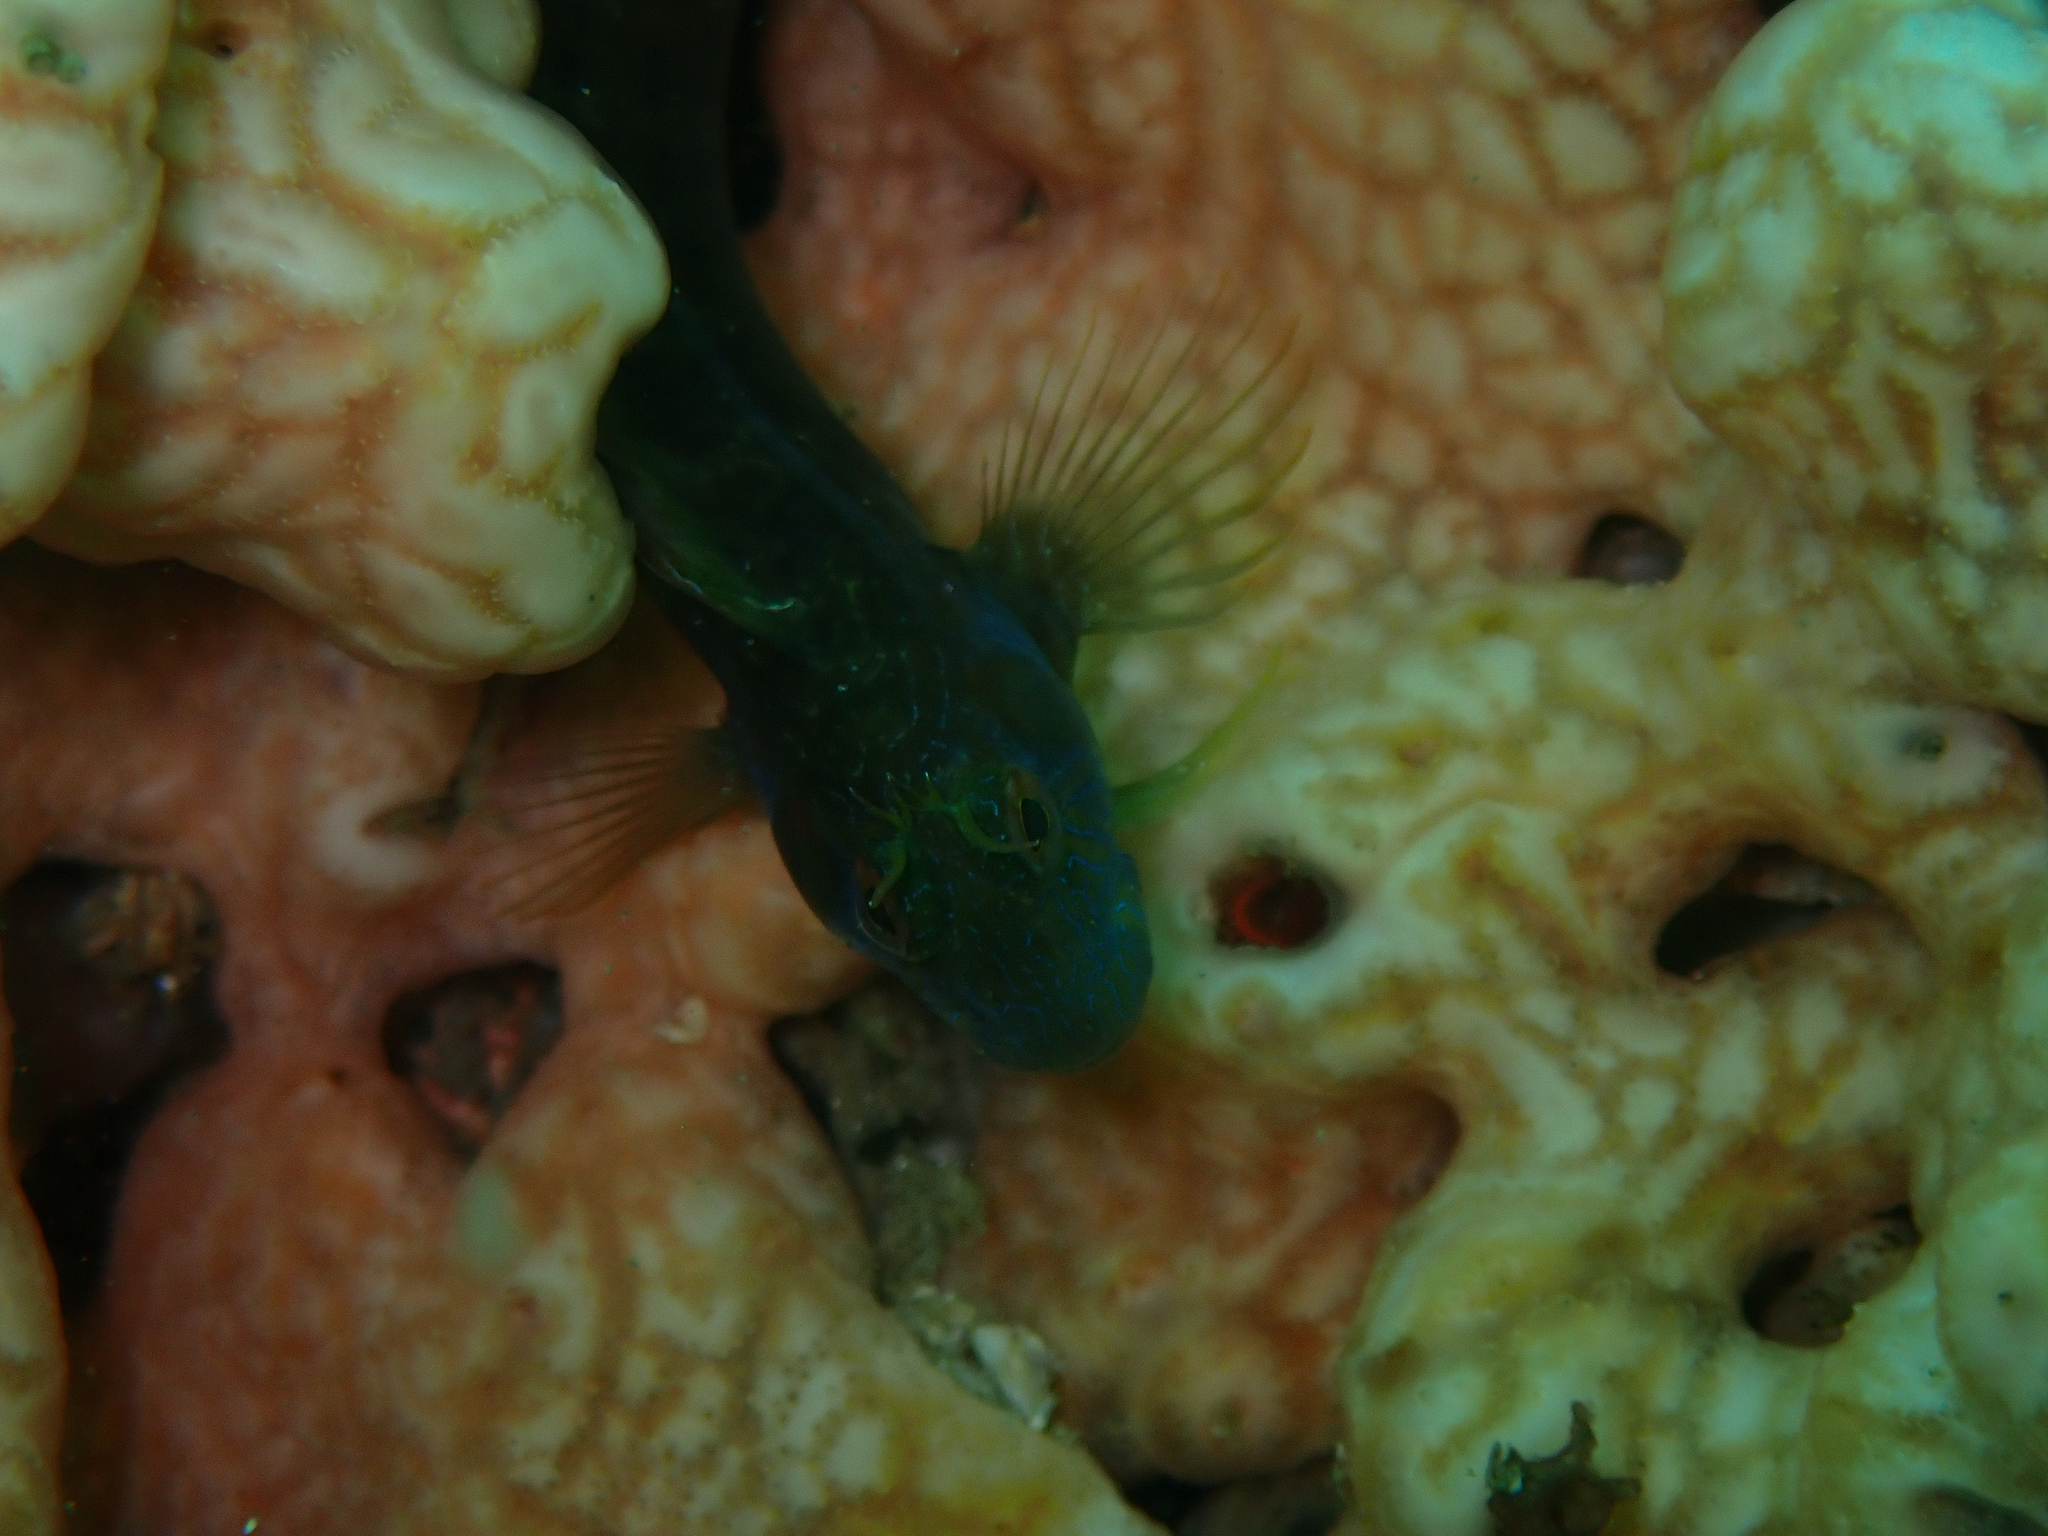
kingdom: Animalia
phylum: Chordata
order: Perciformes
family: Blenniidae
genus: Parablennius
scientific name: Parablennius marmoreus
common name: Seaweed blenny
